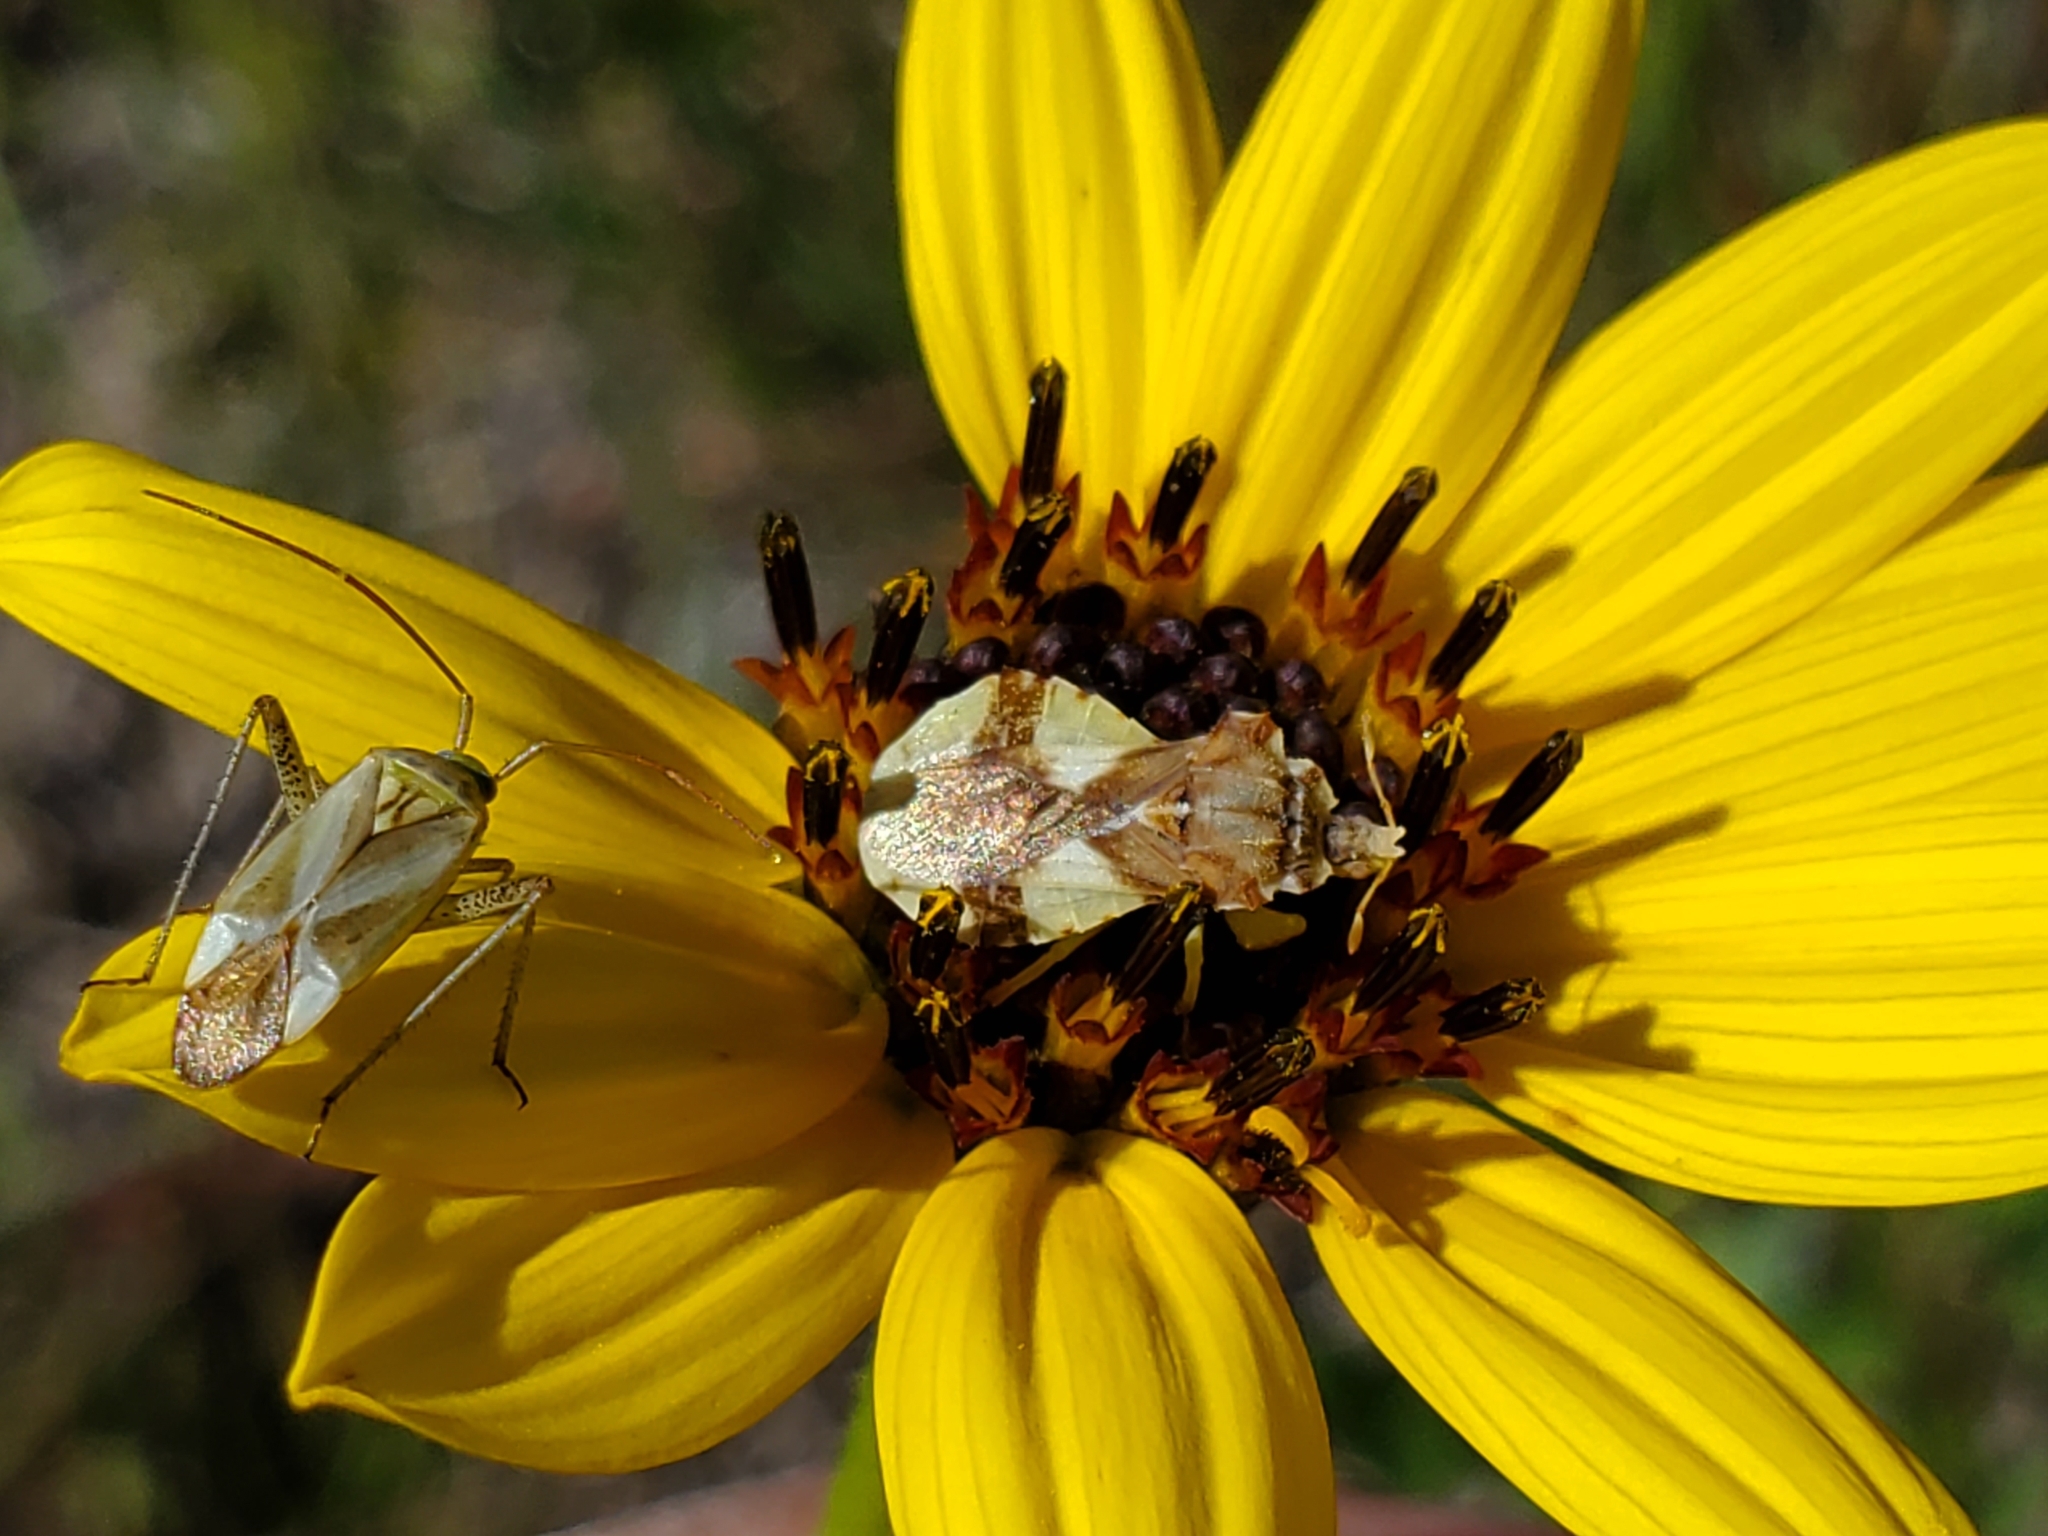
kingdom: Animalia
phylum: Arthropoda
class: Insecta
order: Hemiptera
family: Reduviidae
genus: Phymata
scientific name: Phymata americana
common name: Jagged ambush bug
